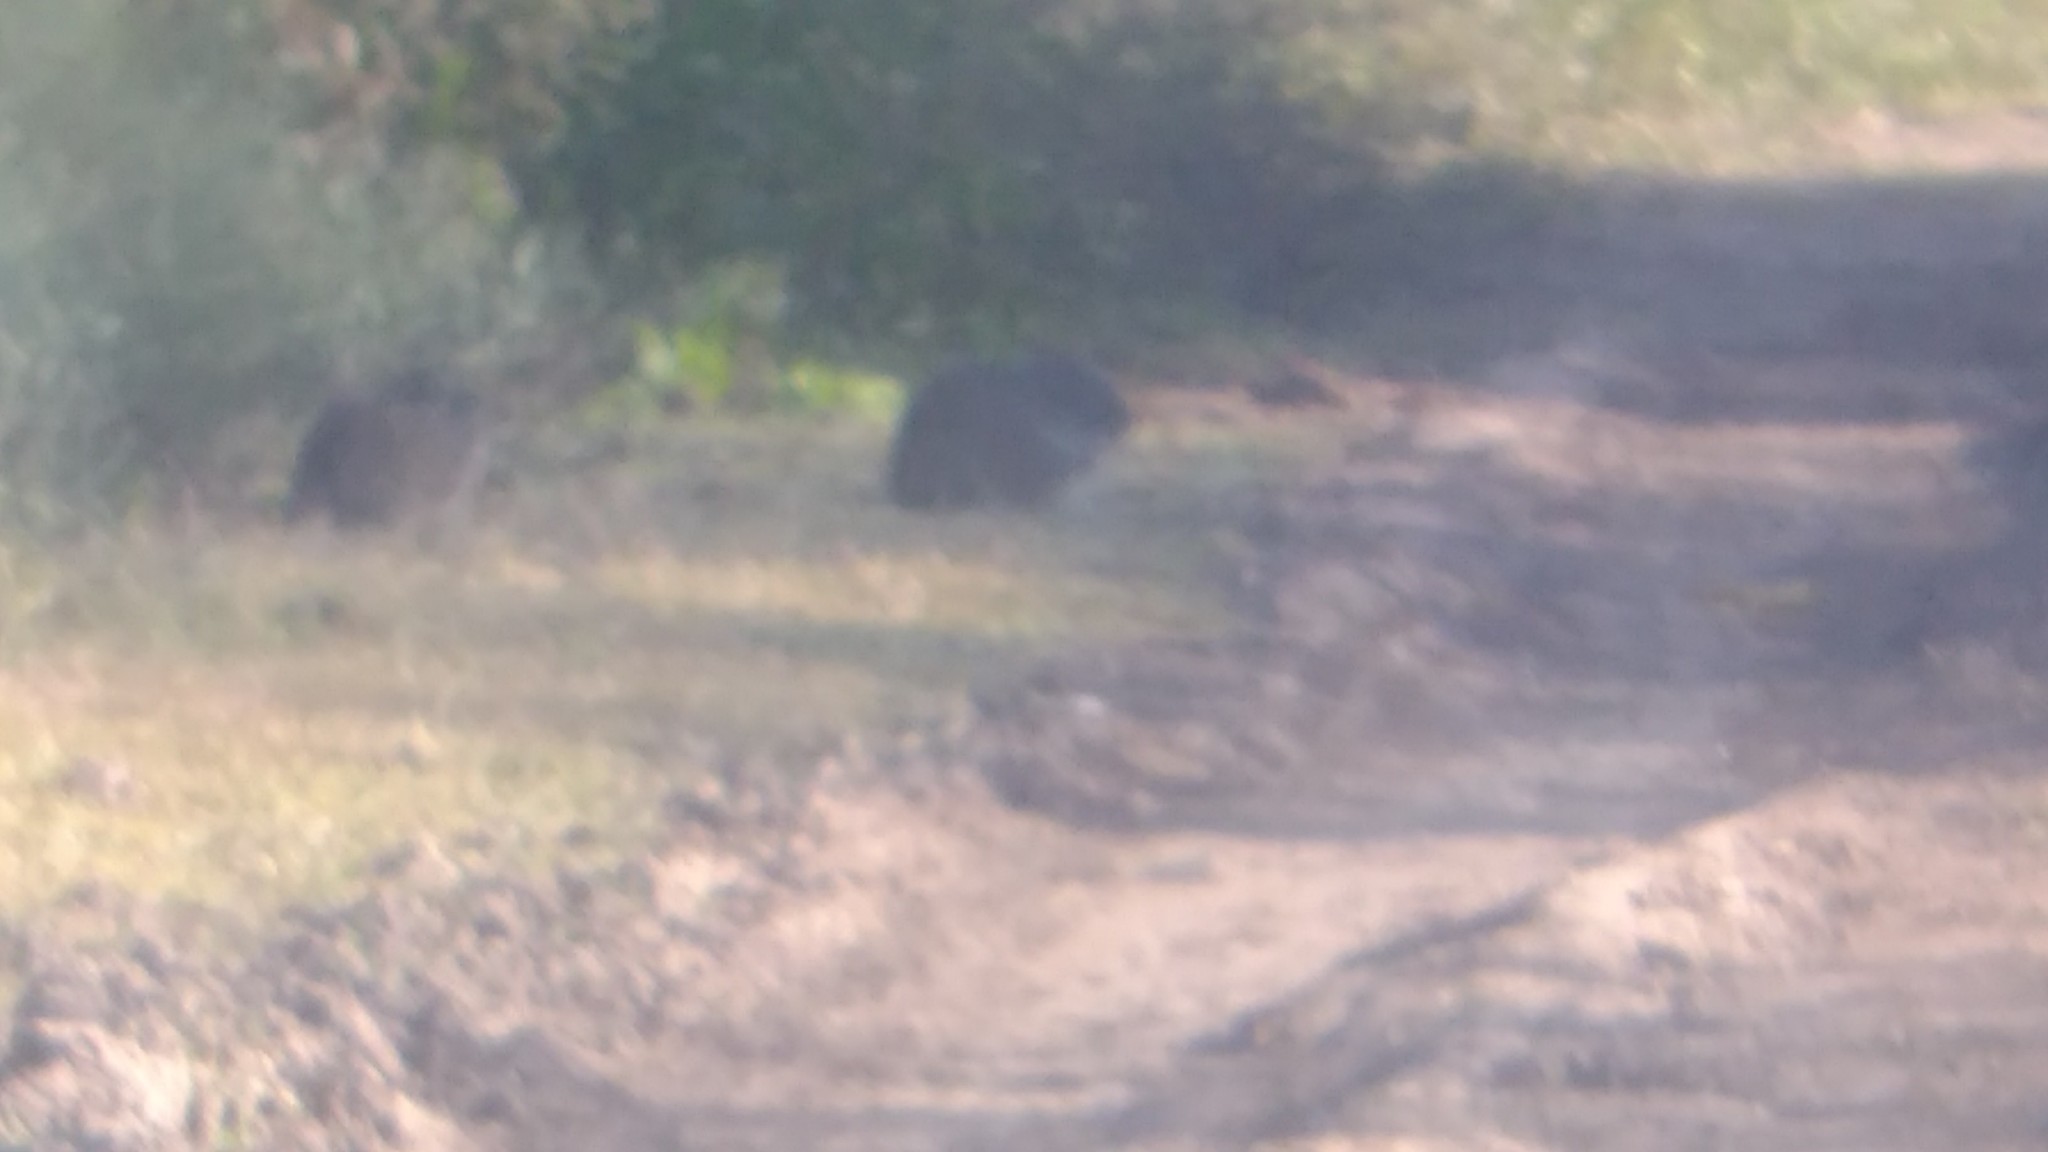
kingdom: Animalia
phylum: Chordata
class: Mammalia
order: Rodentia
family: Caviidae
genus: Cavia
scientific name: Cavia aperea
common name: Brazilian guinea pig
